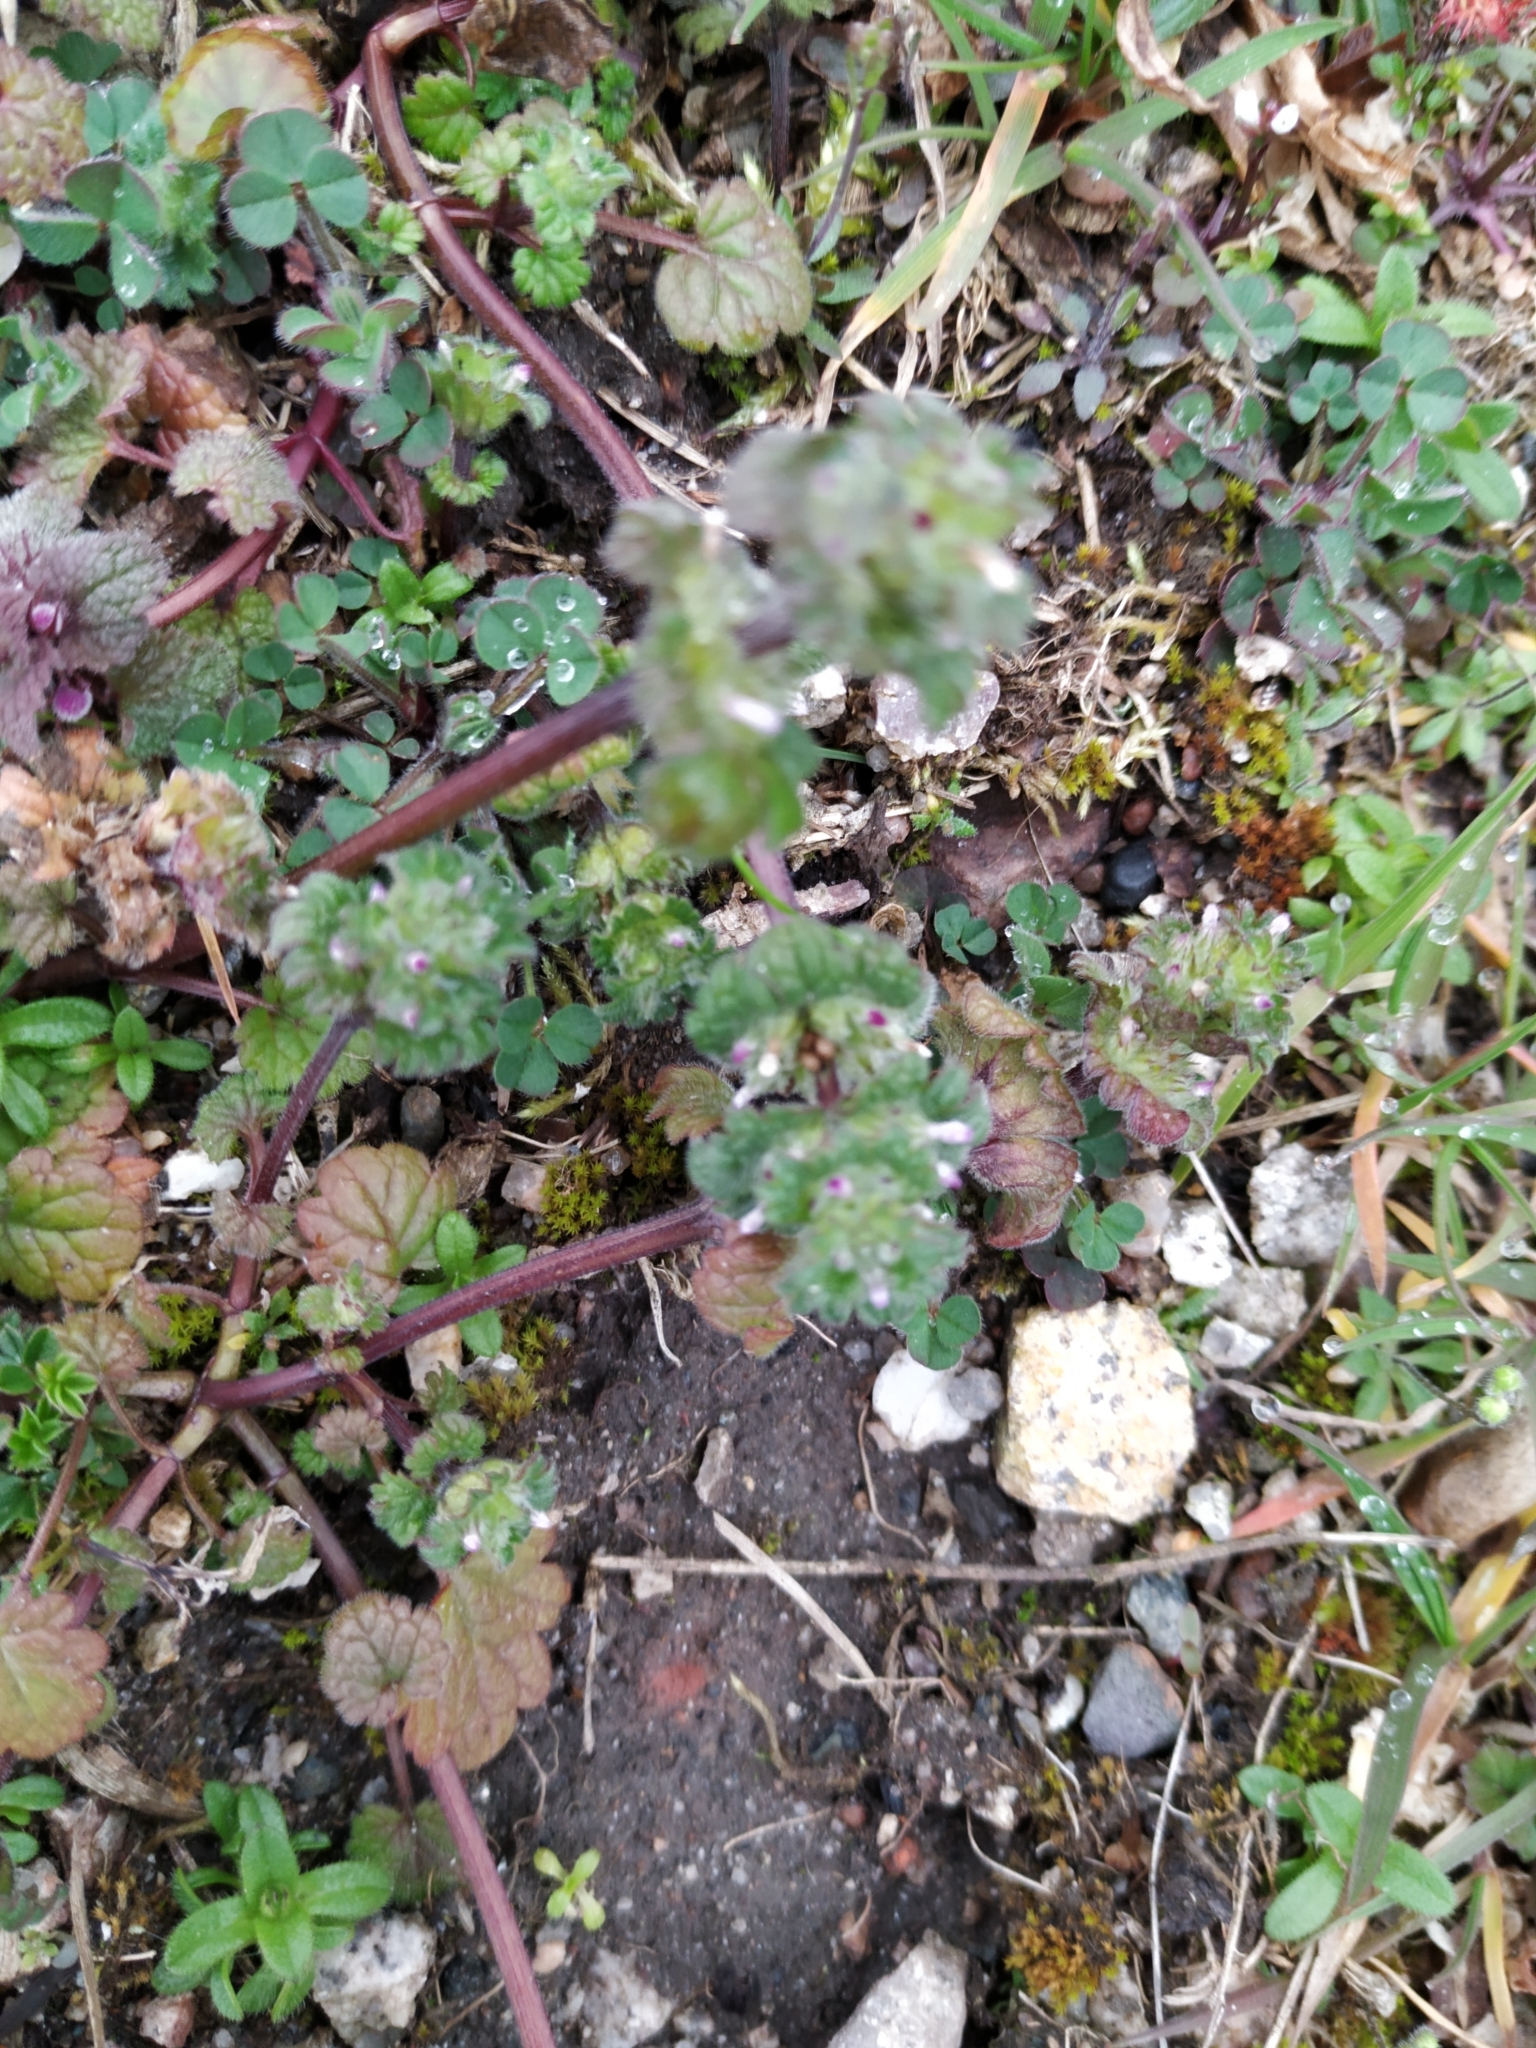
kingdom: Plantae
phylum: Tracheophyta
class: Magnoliopsida
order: Lamiales
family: Lamiaceae
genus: Lamium
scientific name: Lamium amplexicaule
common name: Henbit dead-nettle
